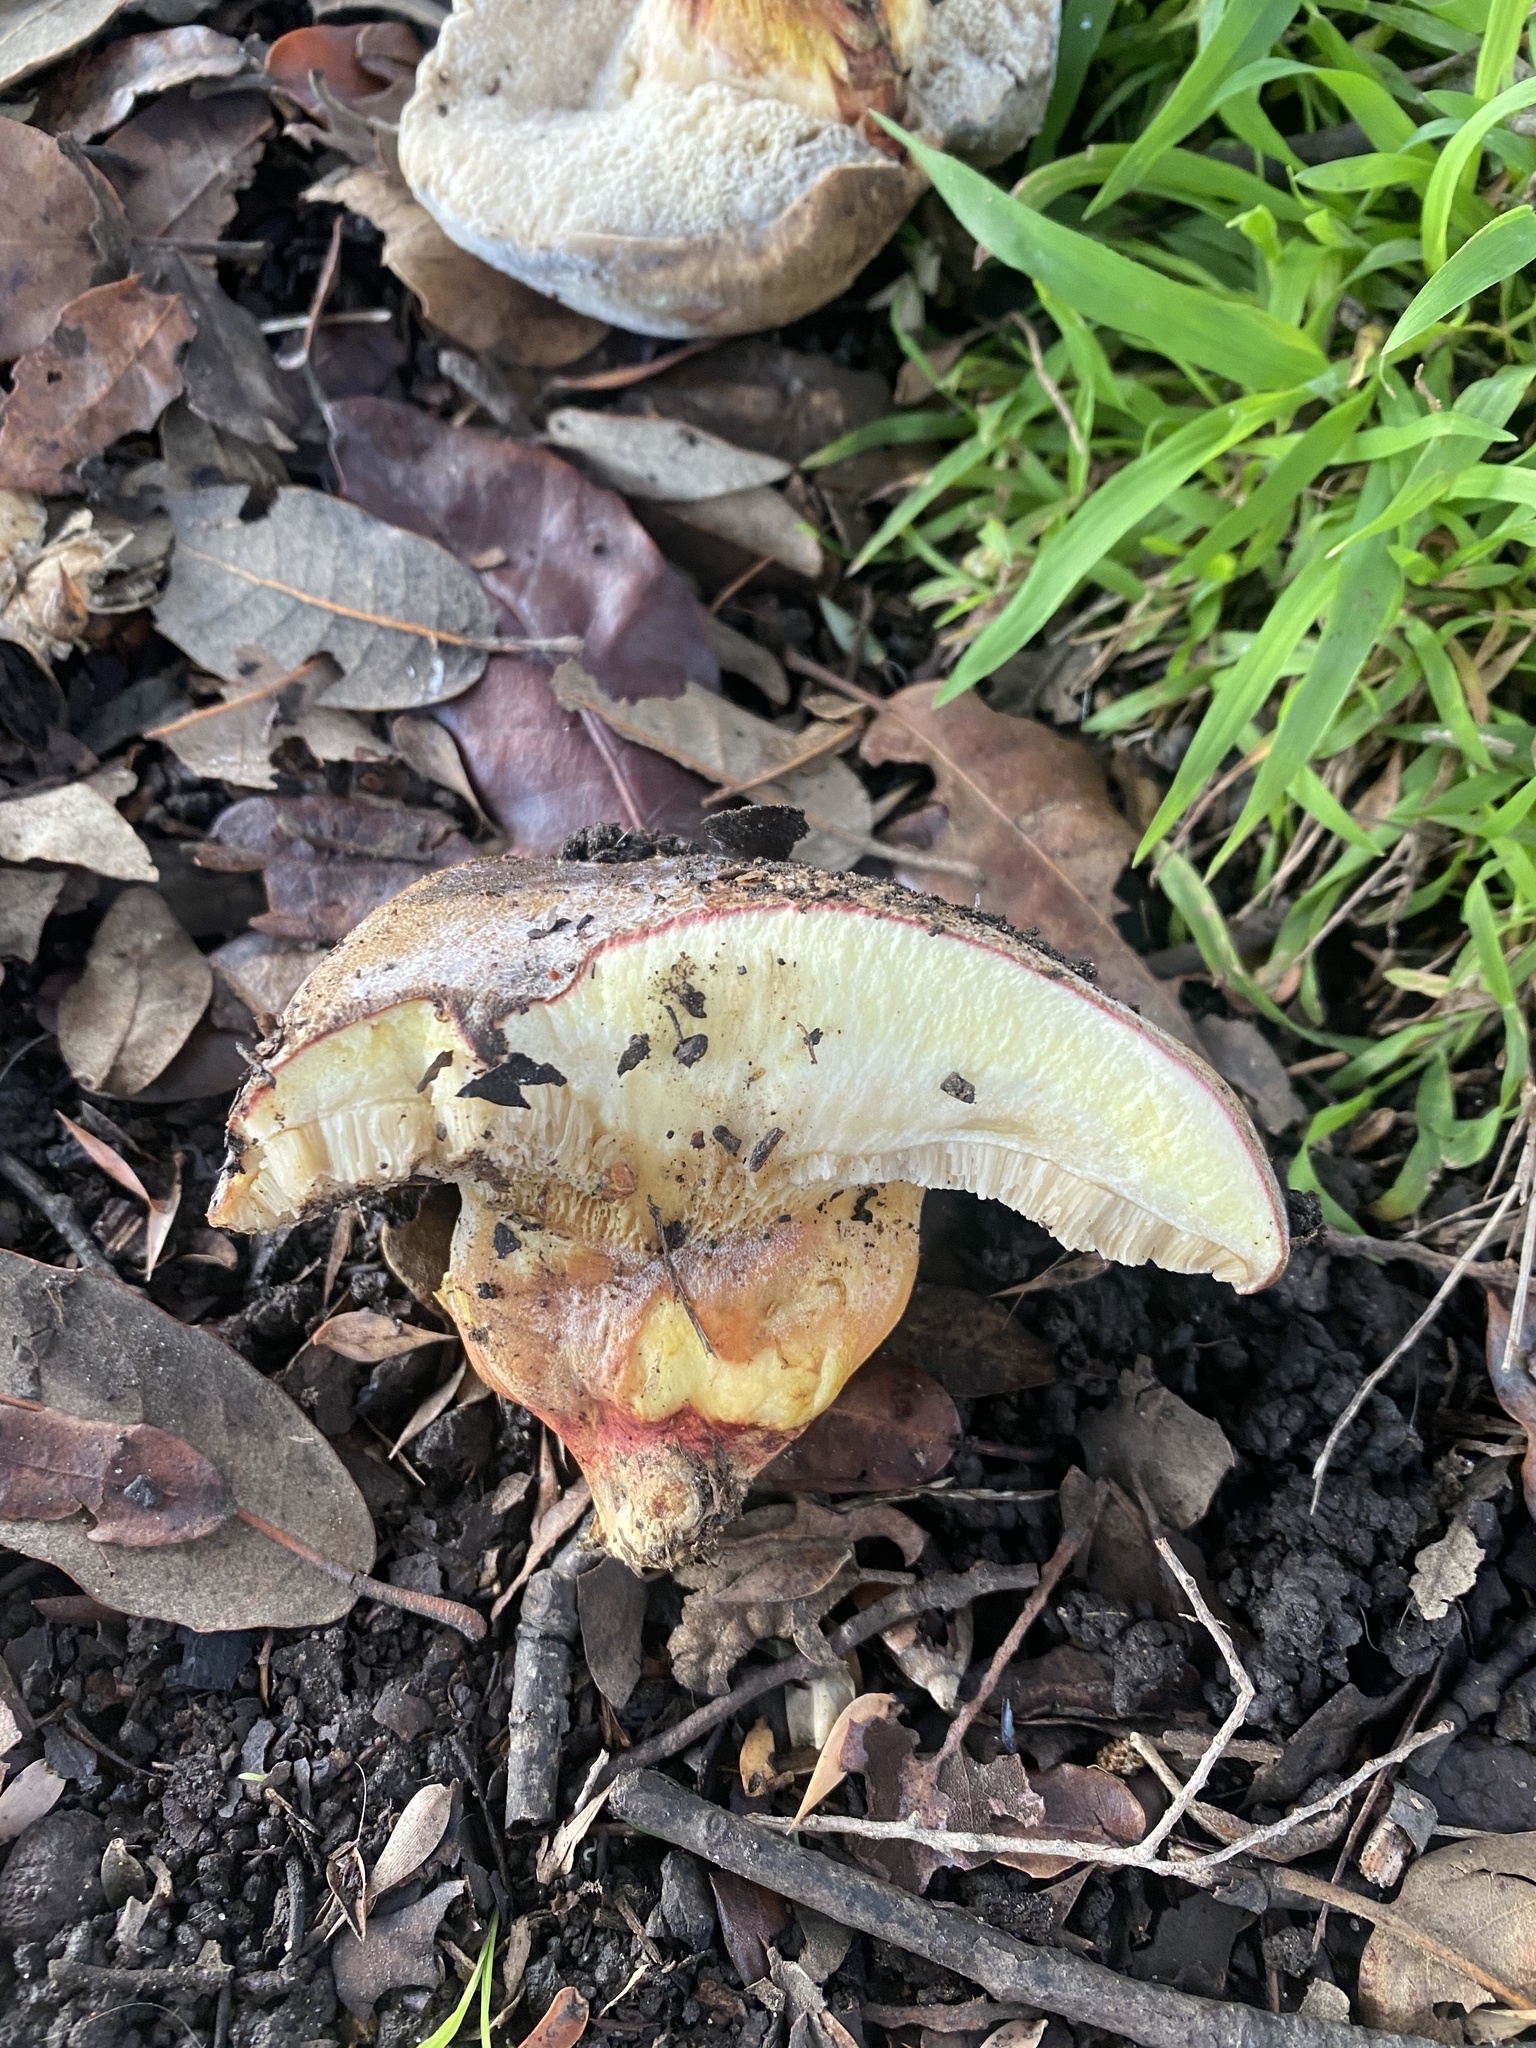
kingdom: Fungi
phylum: Basidiomycota
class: Agaricomycetes
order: Boletales
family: Boletaceae
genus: Xerocomellus
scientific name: Xerocomellus dryophilus
